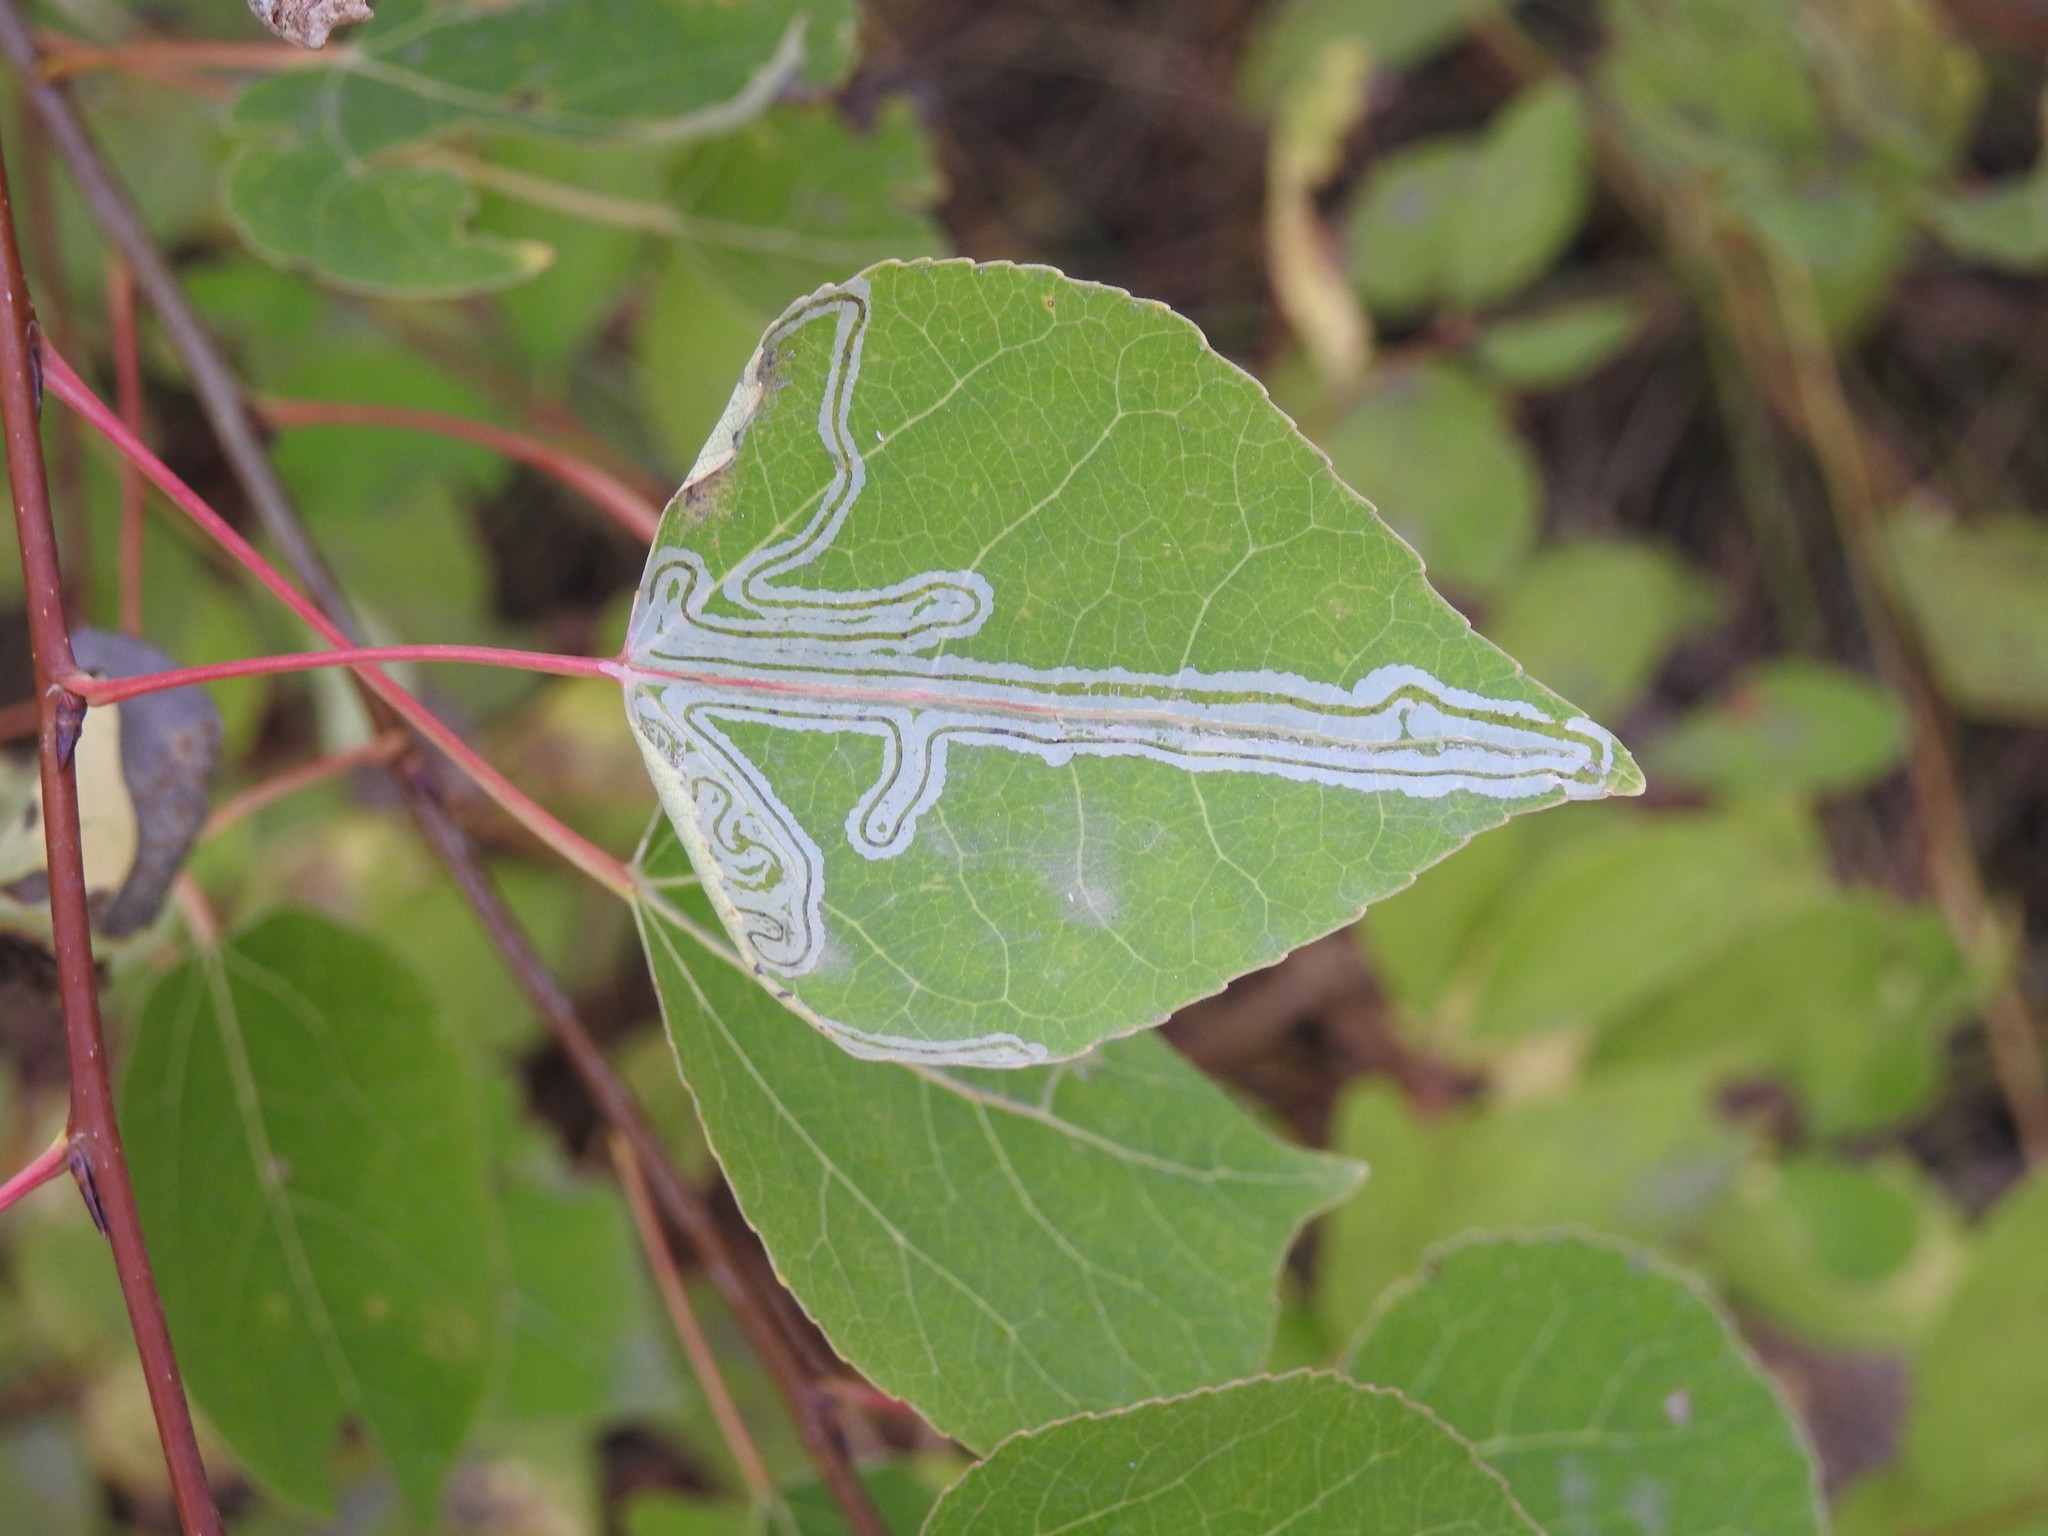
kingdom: Animalia
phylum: Arthropoda
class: Insecta
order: Lepidoptera
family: Gracillariidae
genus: Phyllocnistis
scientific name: Phyllocnistis populiella
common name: Aspen serpentine leafminer moth
